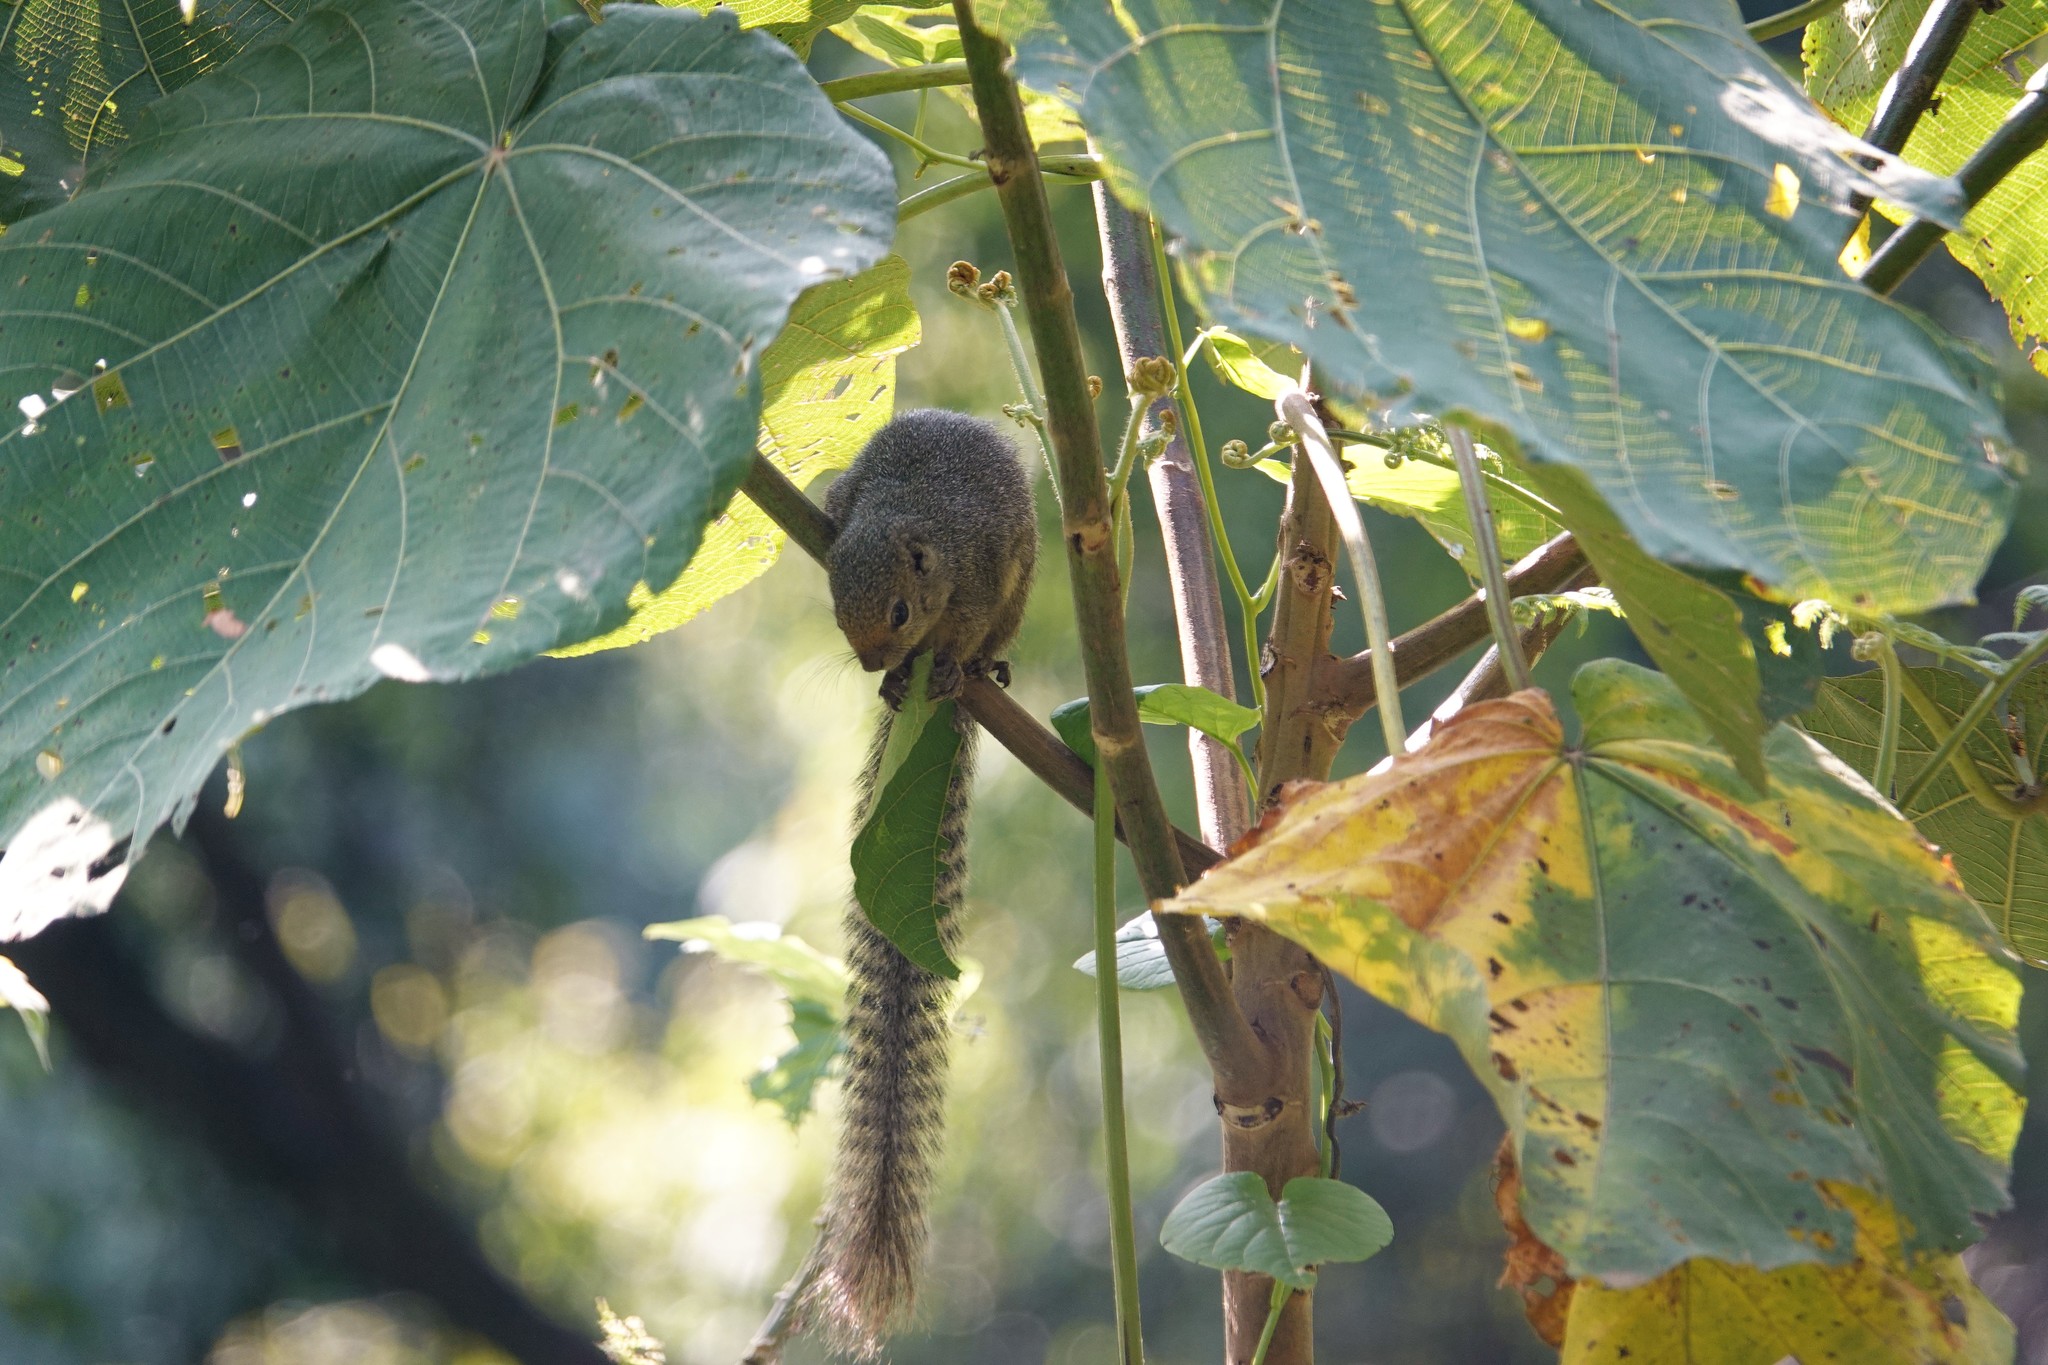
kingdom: Animalia
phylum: Chordata
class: Mammalia
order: Rodentia
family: Sciuridae
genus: Heliosciurus
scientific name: Heliosciurus ruwenzorii
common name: Ruwenzori sun squirrel
